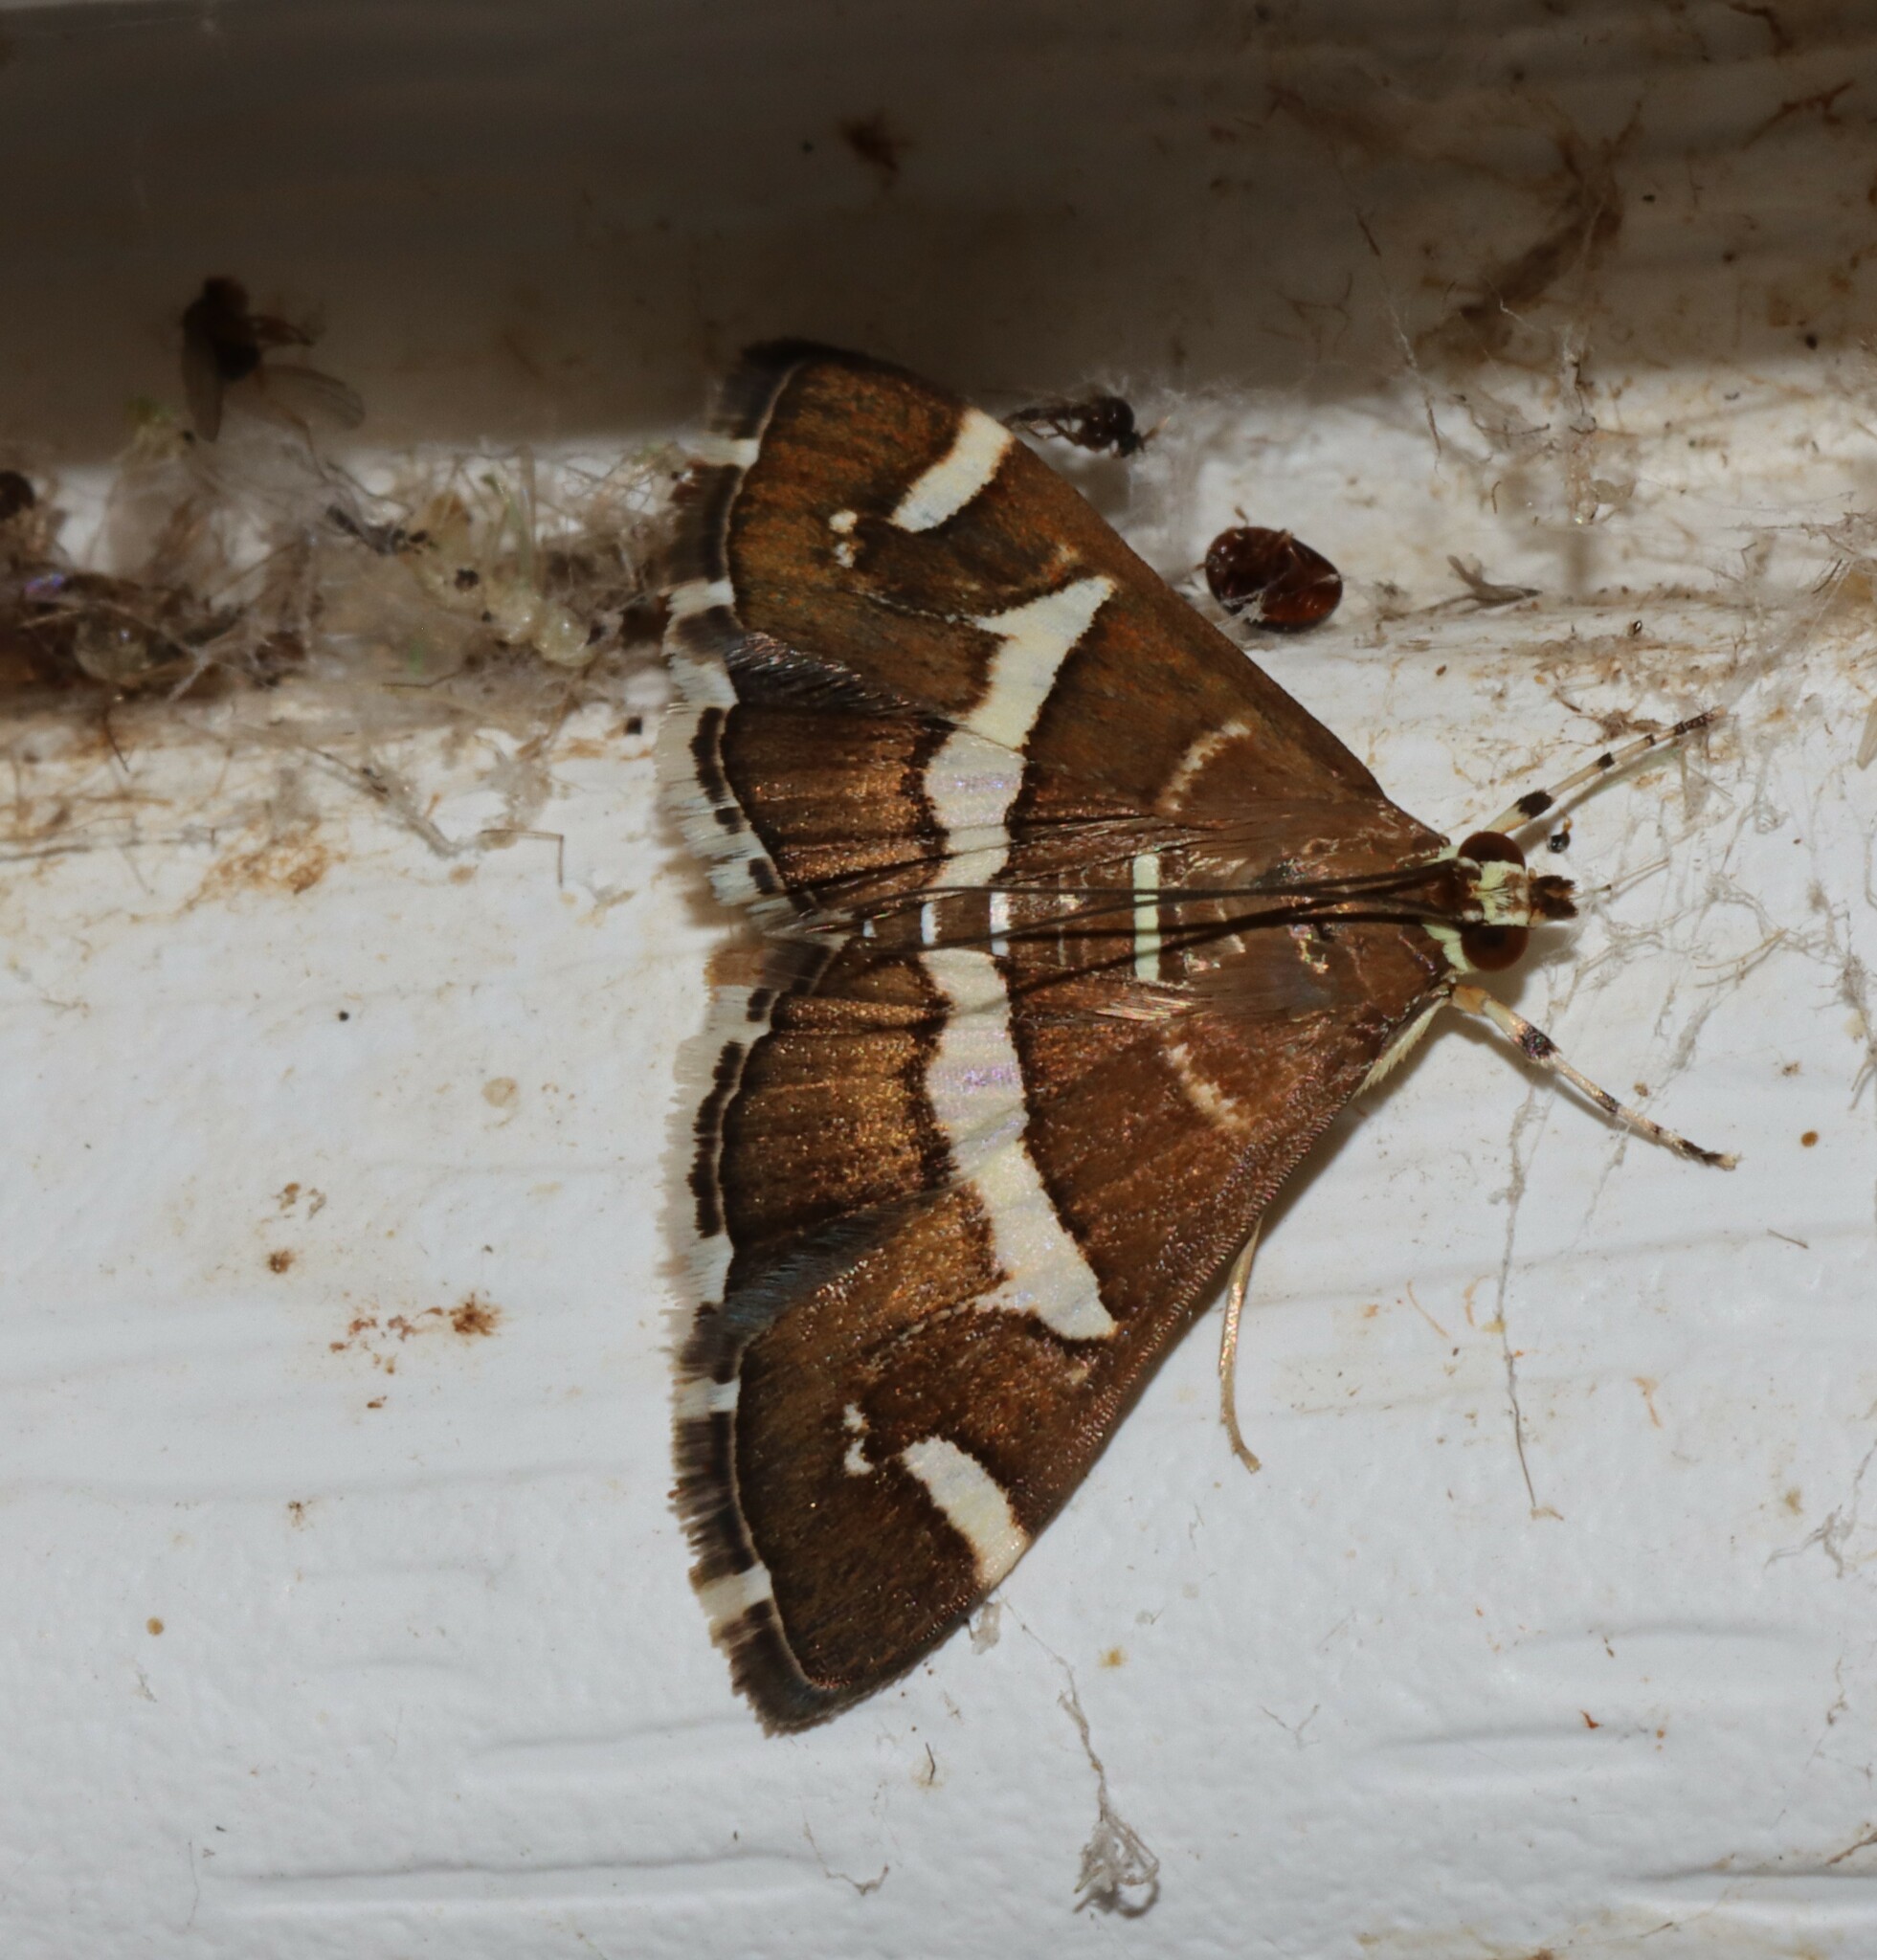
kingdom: Animalia
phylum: Arthropoda
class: Insecta
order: Lepidoptera
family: Crambidae
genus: Spoladea
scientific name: Spoladea recurvalis
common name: Beet webworm moth
